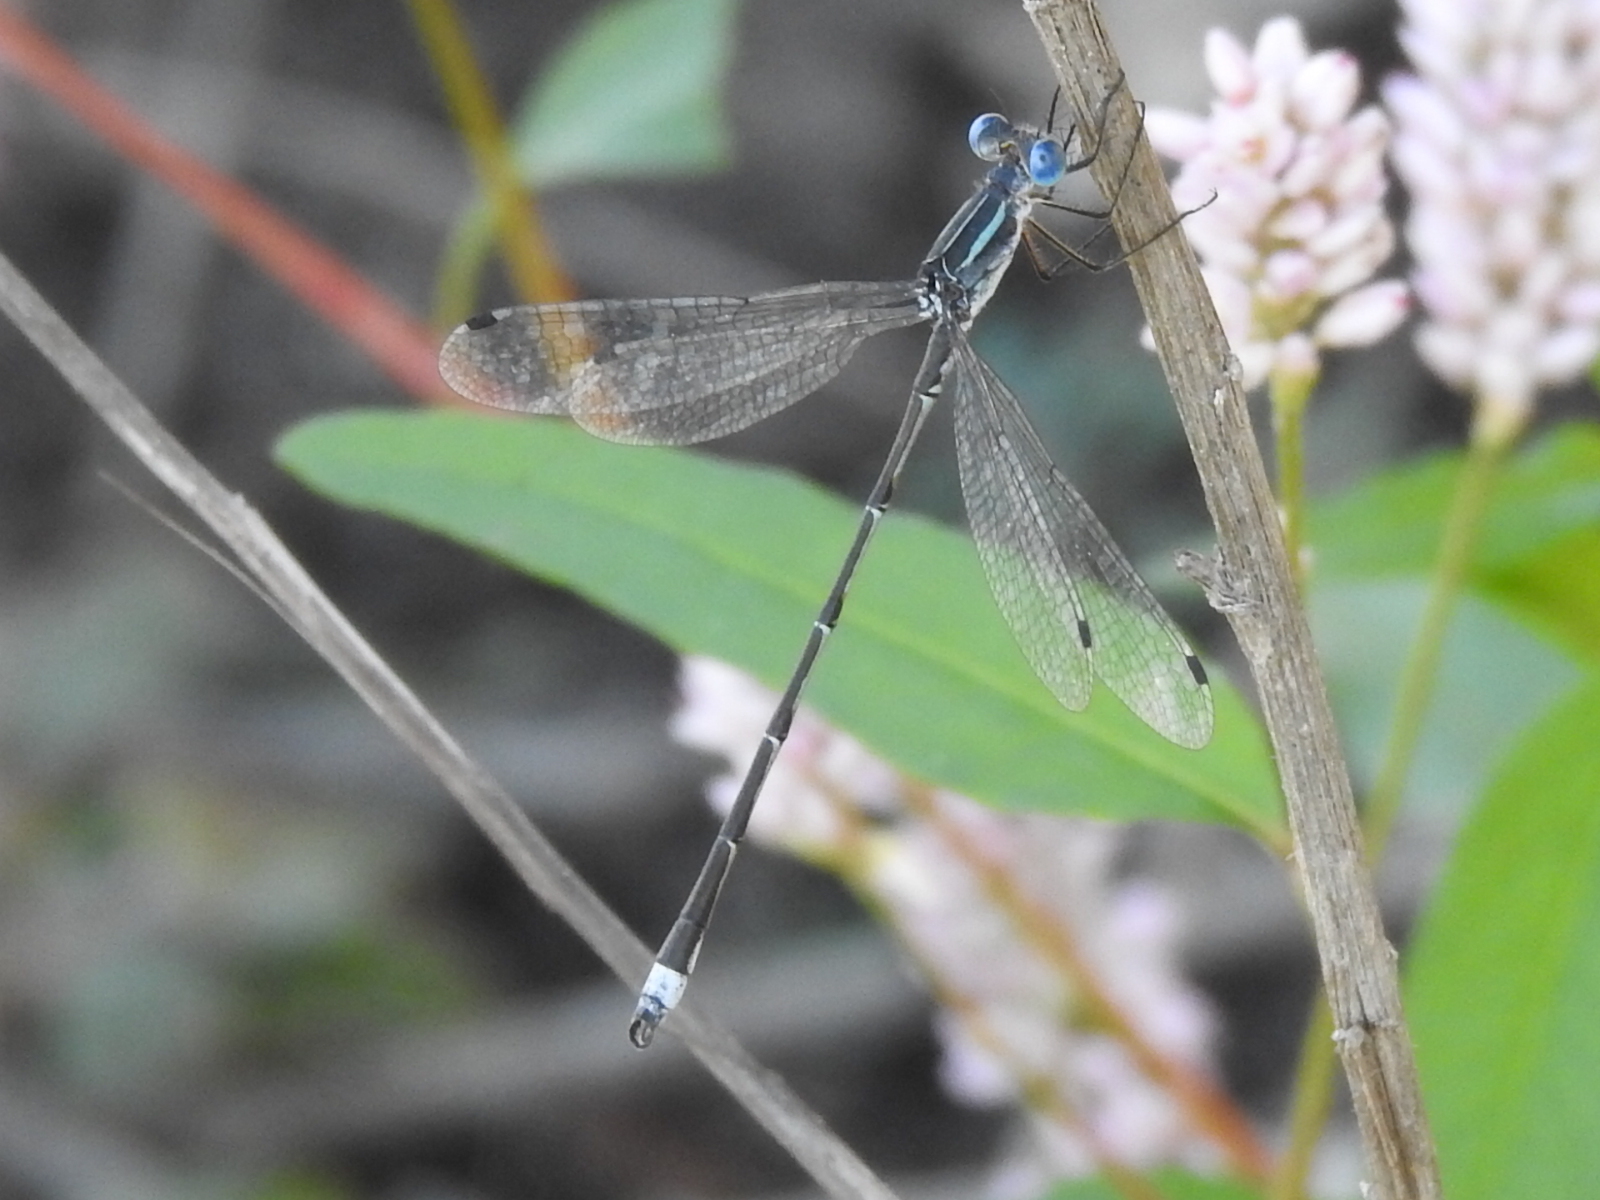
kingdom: Animalia
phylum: Arthropoda
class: Insecta
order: Odonata
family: Lestidae
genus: Lestes
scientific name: Lestes australis
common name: Southern spreadwing
